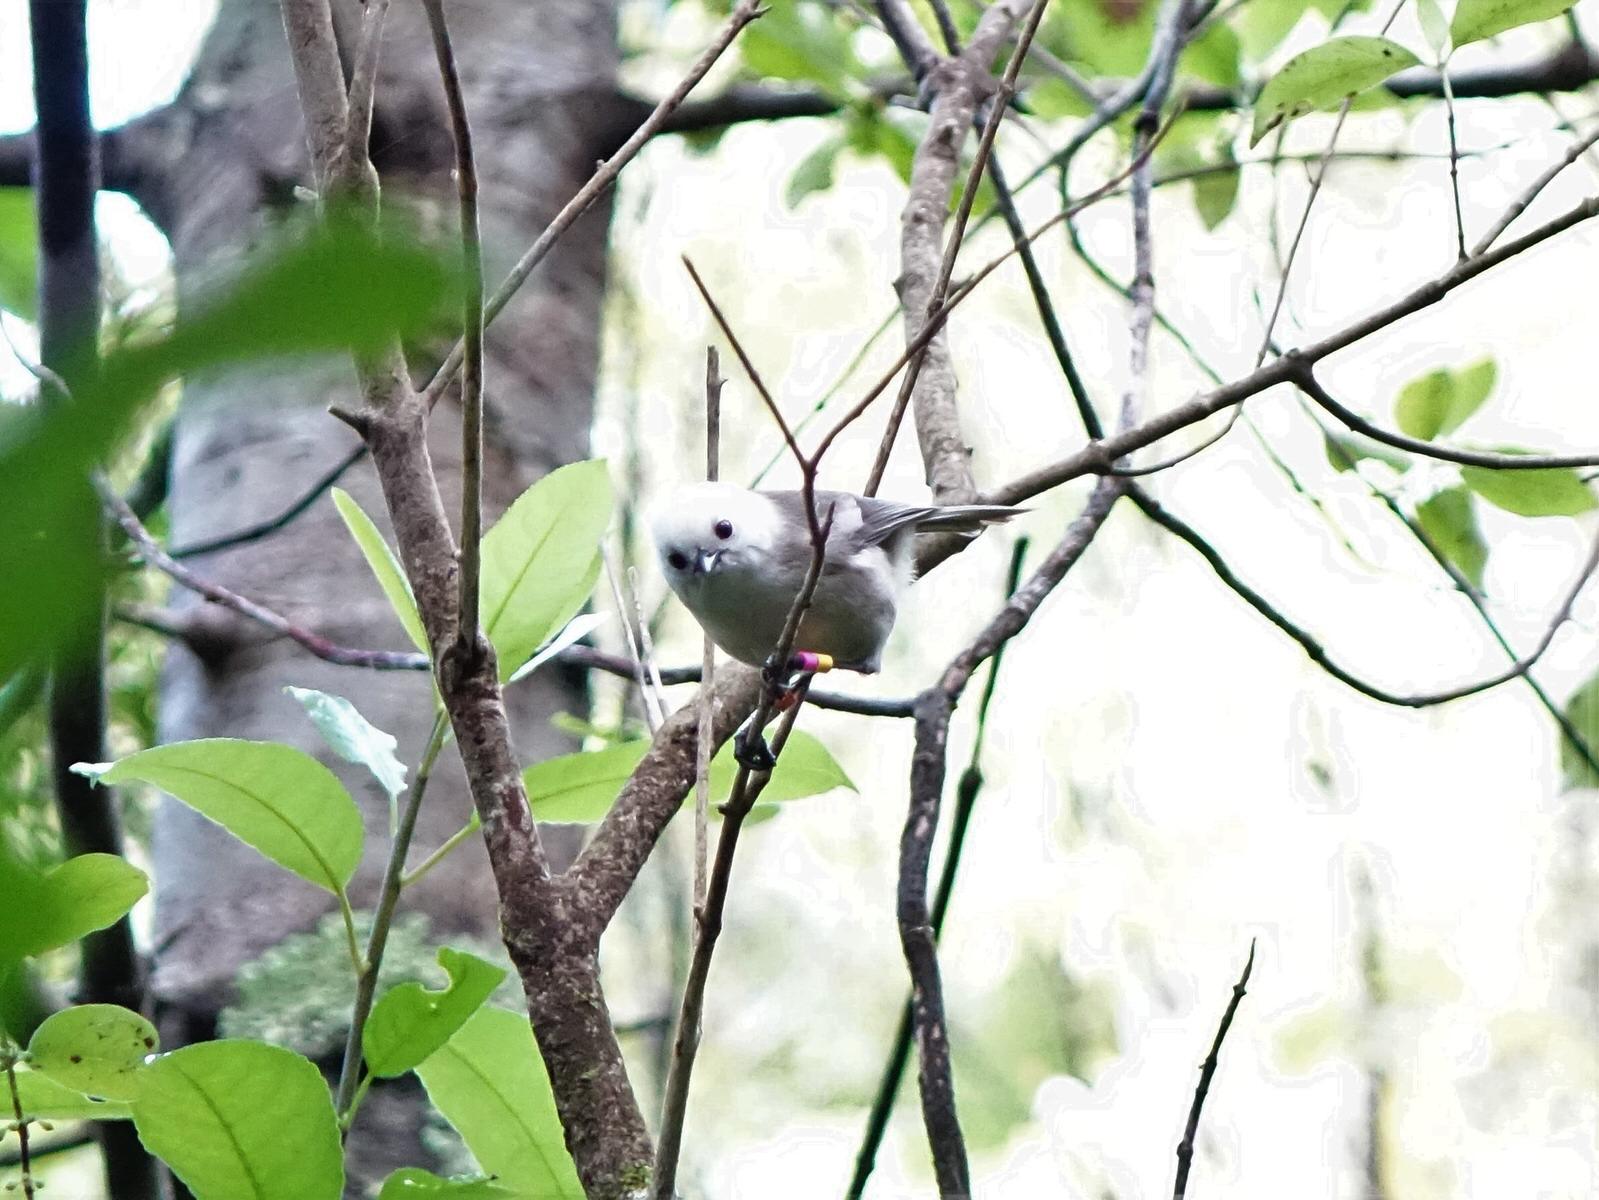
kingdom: Animalia
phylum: Chordata
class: Aves
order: Passeriformes
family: Acanthizidae
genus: Mohoua
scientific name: Mohoua albicilla
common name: Whitehead
